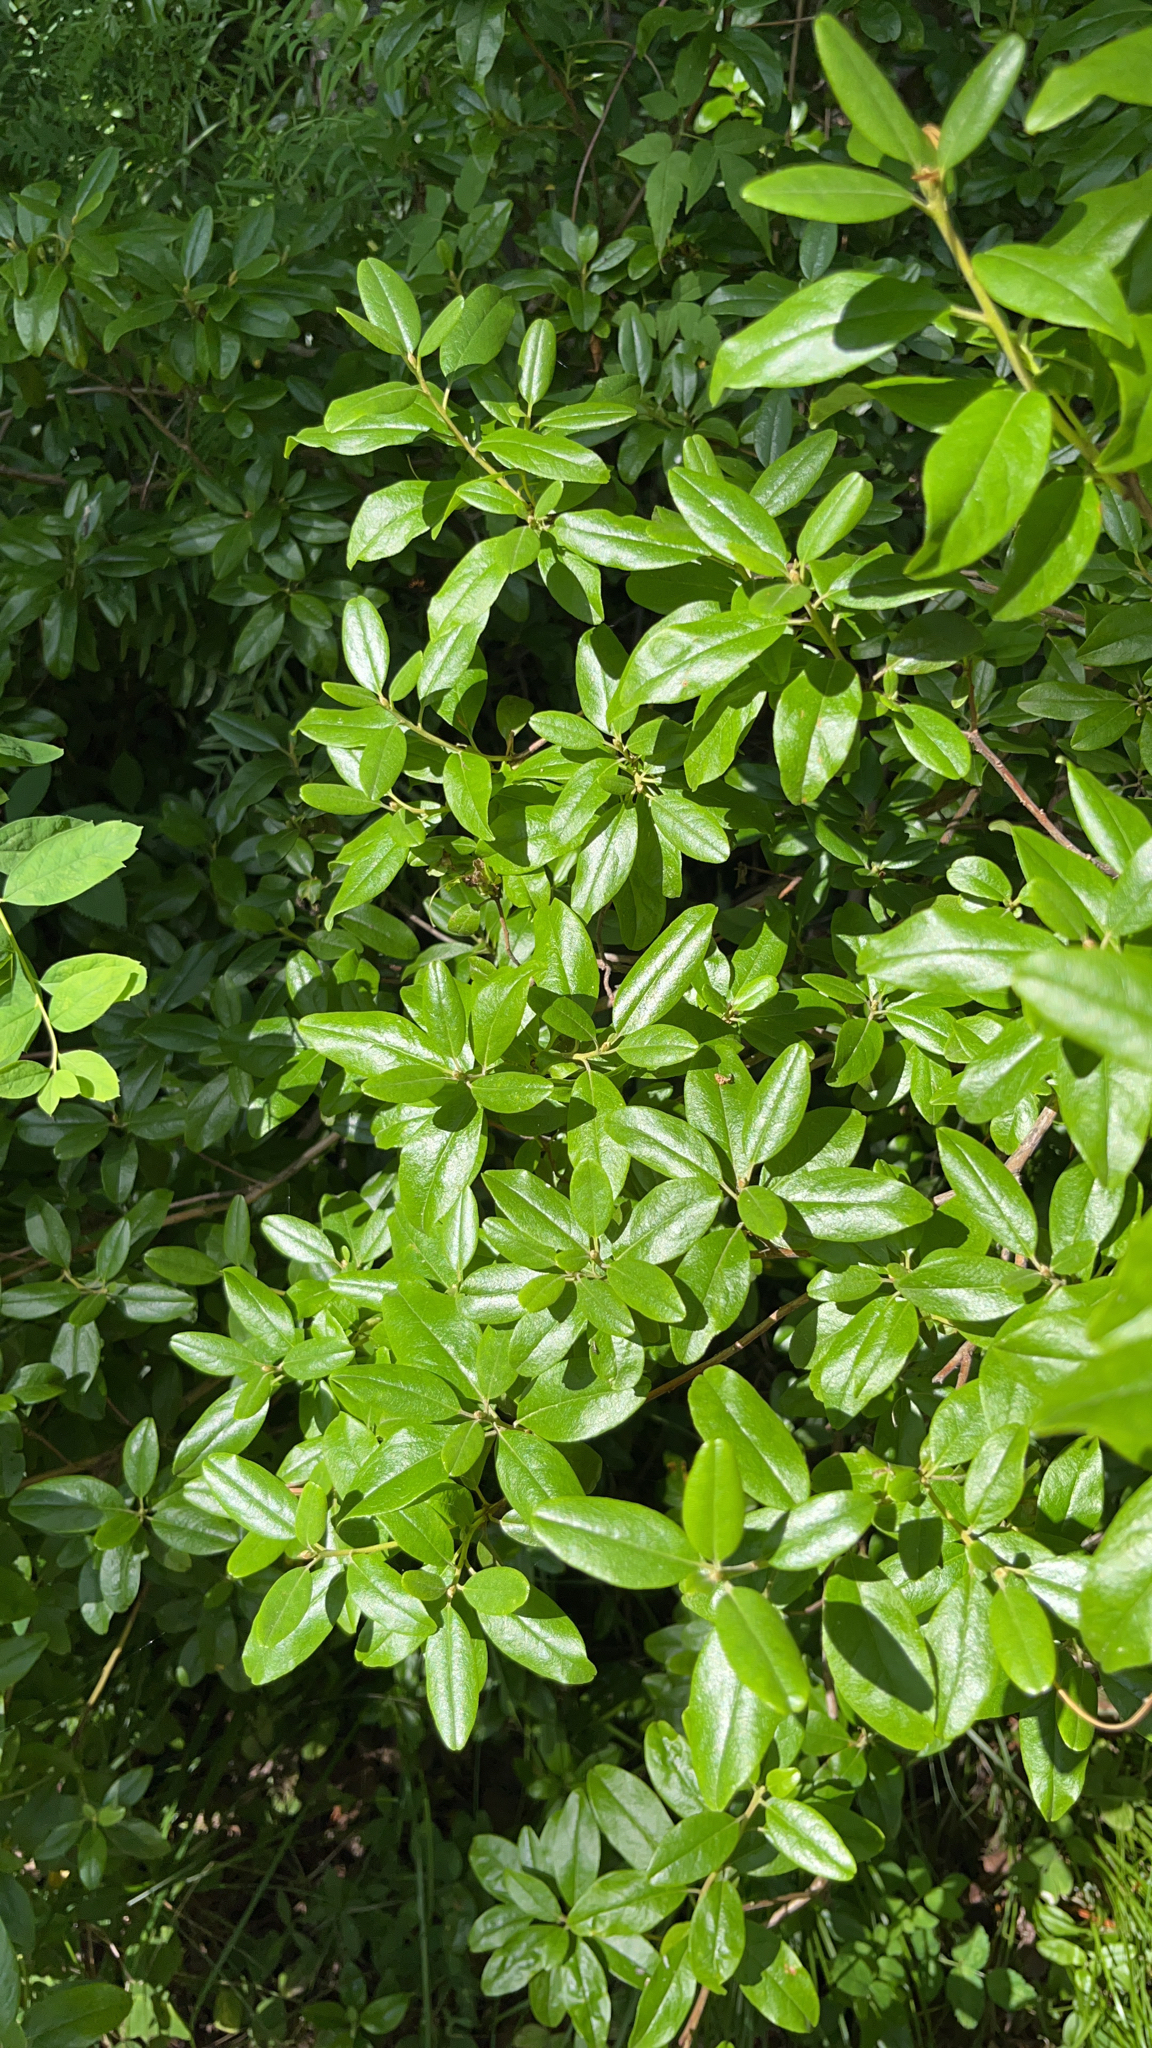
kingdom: Plantae
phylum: Tracheophyta
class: Magnoliopsida
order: Ericales
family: Ericaceae
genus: Rhododendron
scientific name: Rhododendron dauricum
